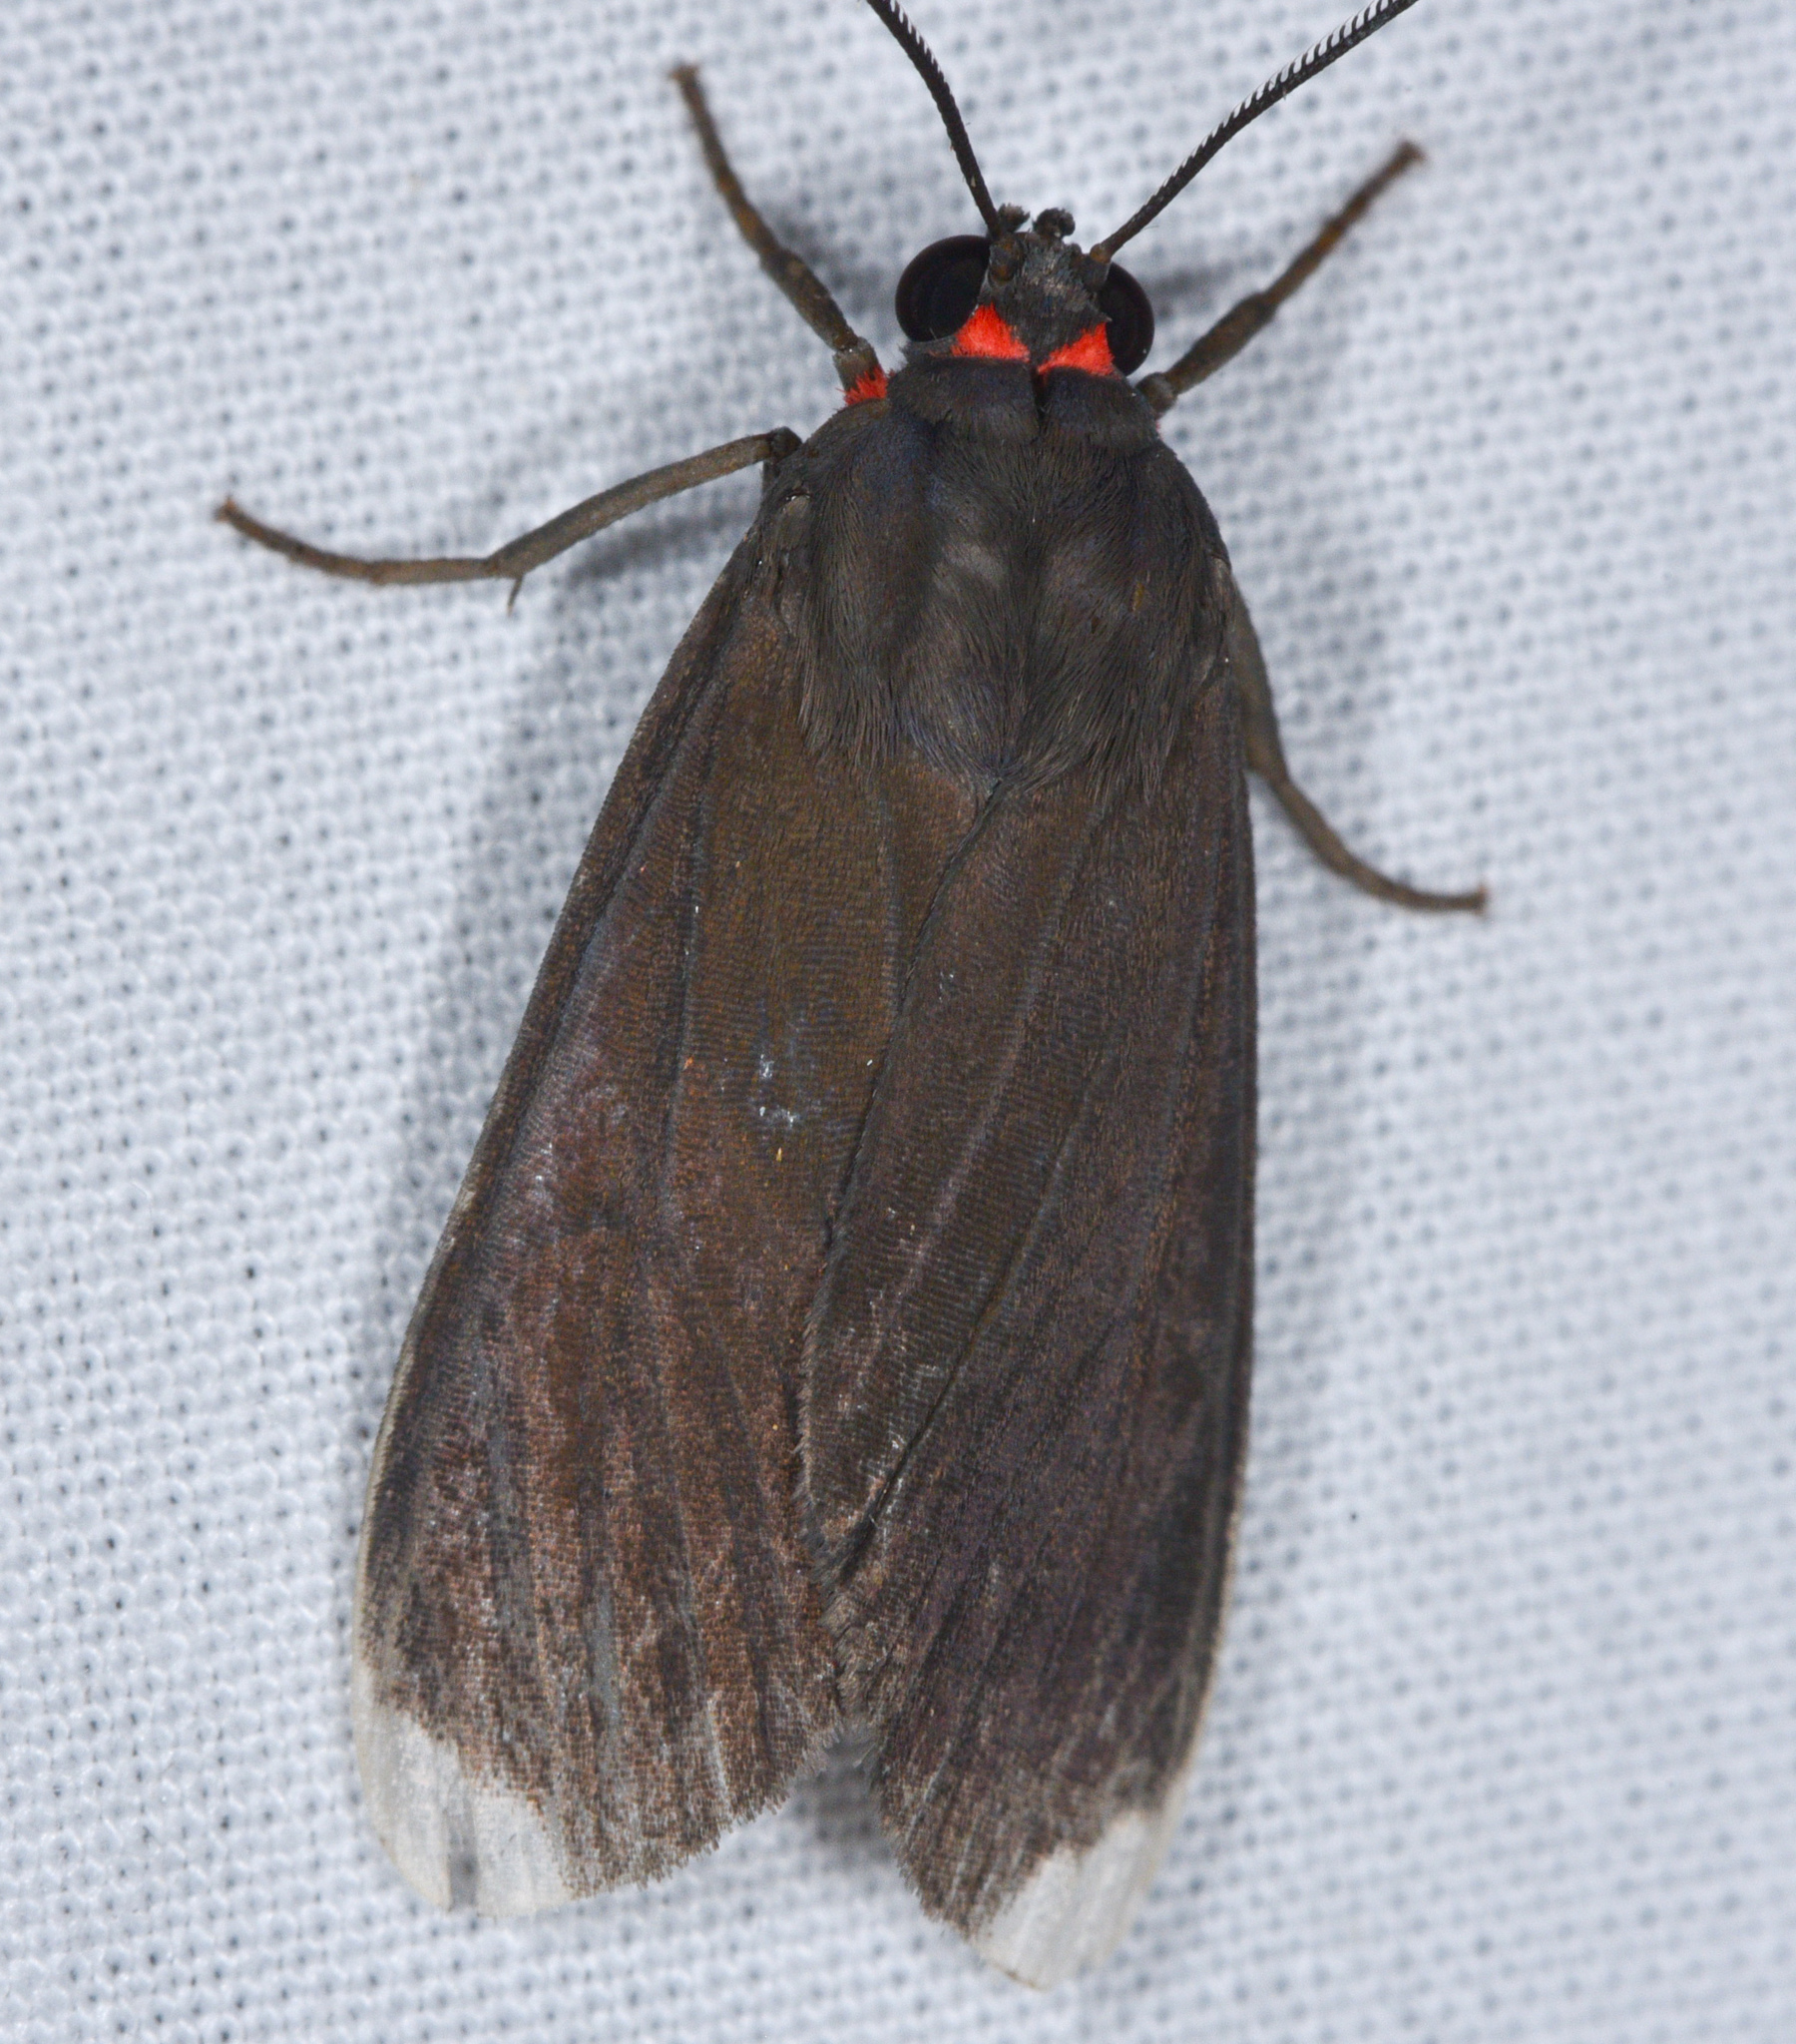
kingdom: Animalia
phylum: Arthropoda
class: Insecta
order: Lepidoptera
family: Erebidae
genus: Episcepsis
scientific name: Episcepsis thetis
